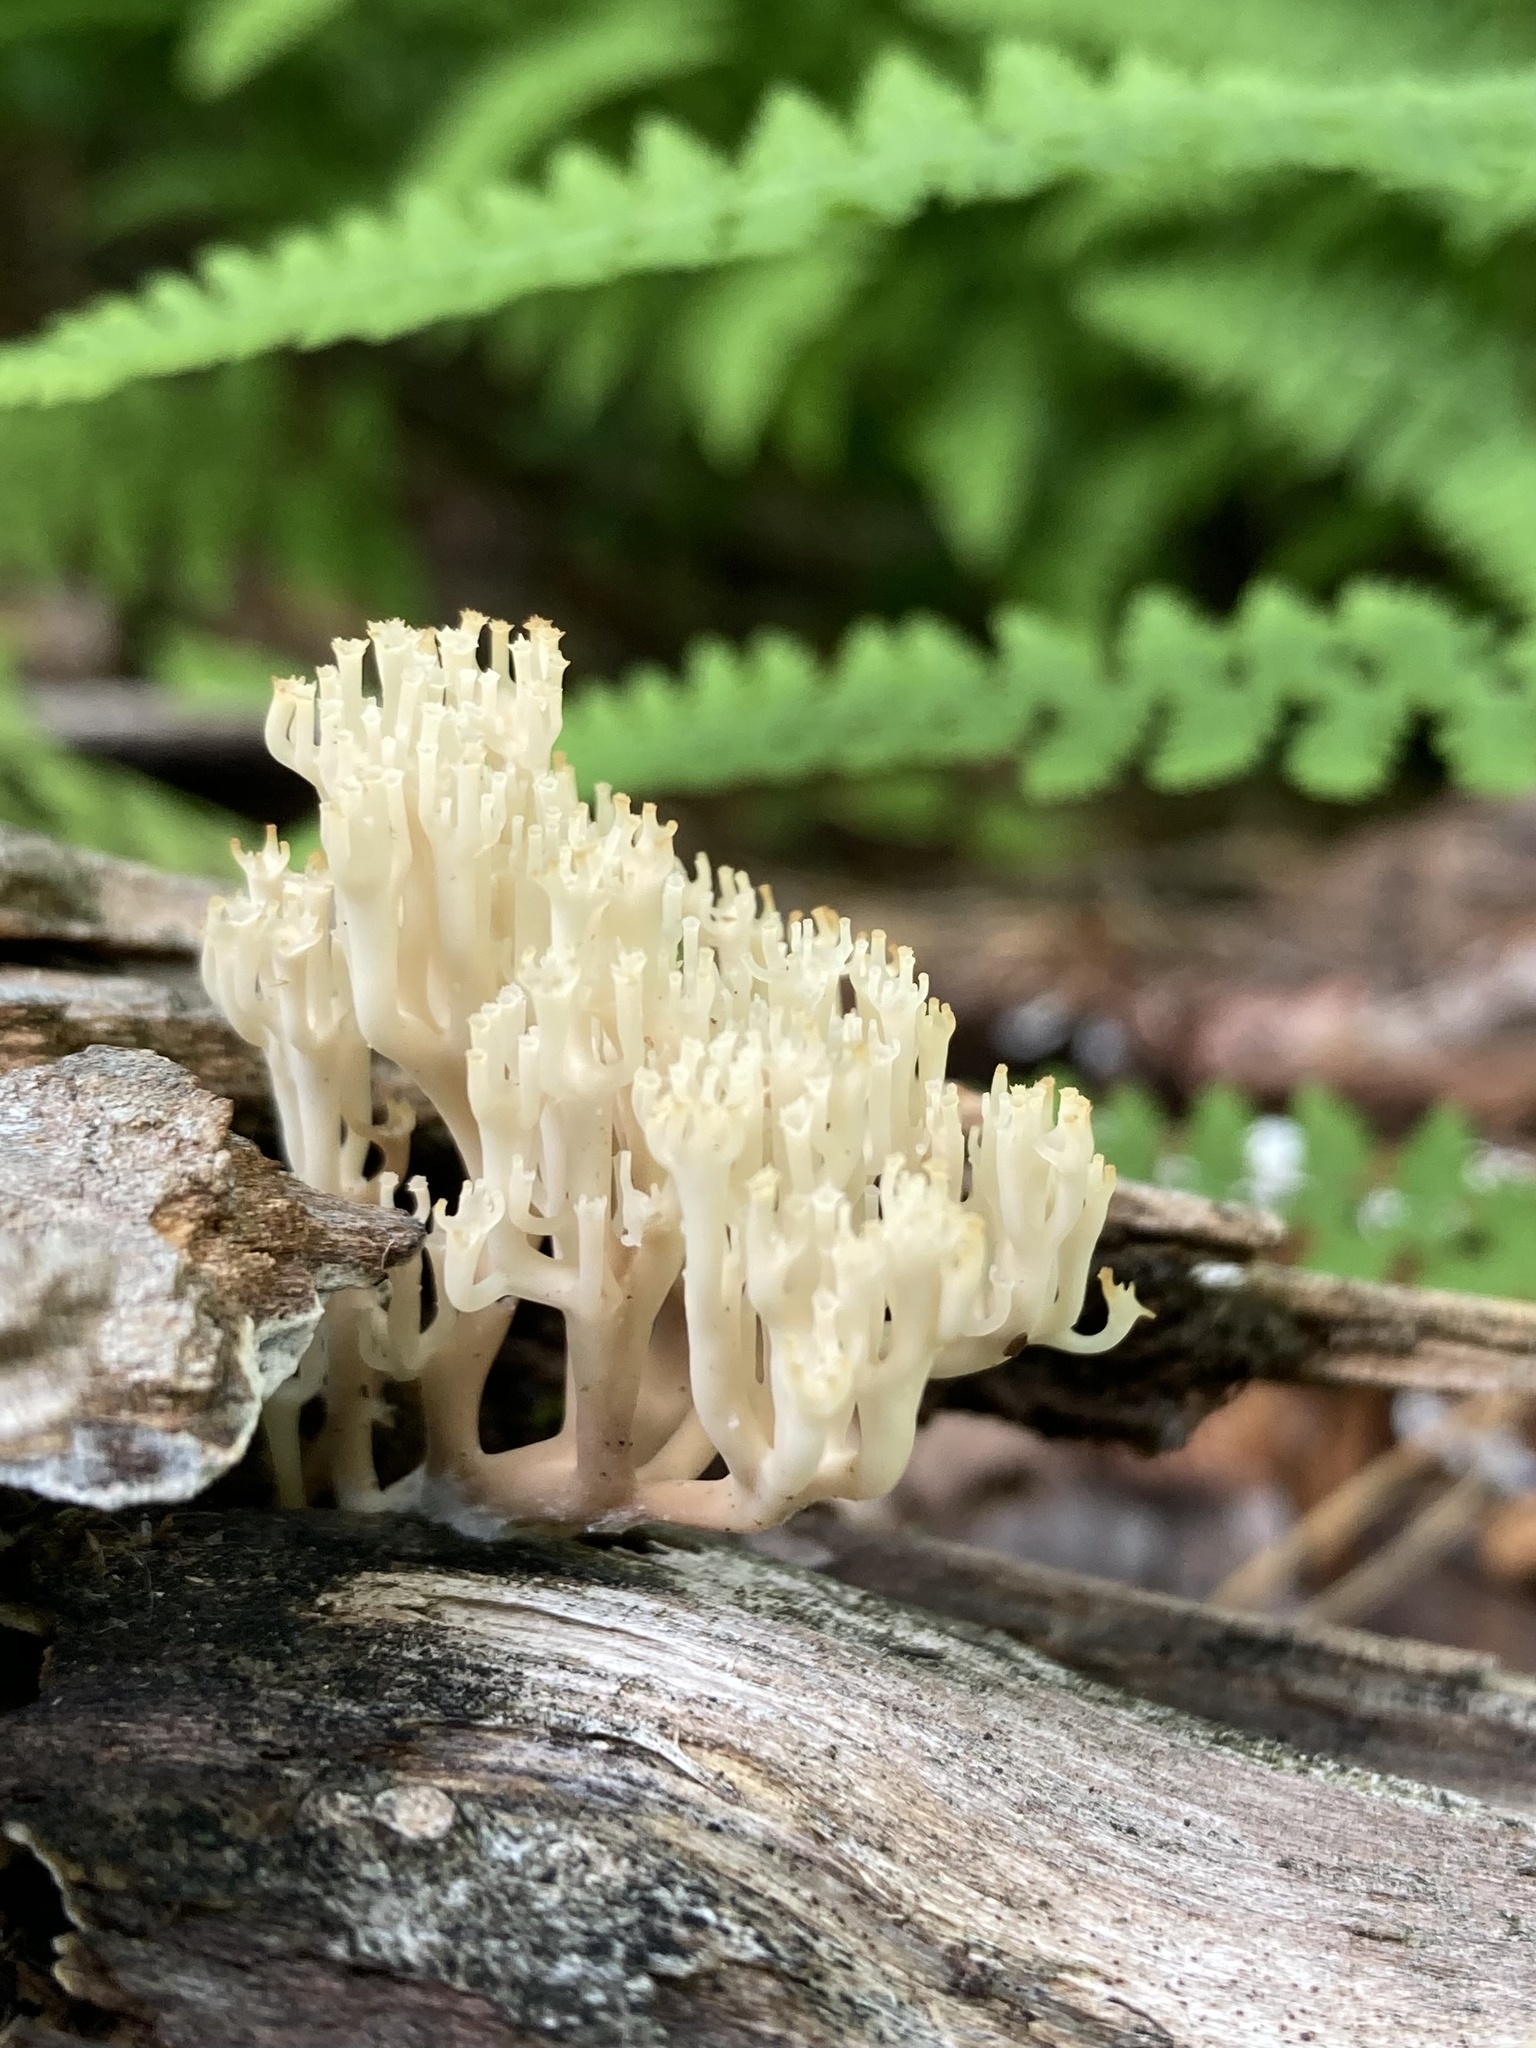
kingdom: Fungi
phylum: Basidiomycota
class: Agaricomycetes
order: Russulales
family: Auriscalpiaceae
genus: Artomyces
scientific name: Artomyces pyxidatus
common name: Crown-tipped coral fungus
